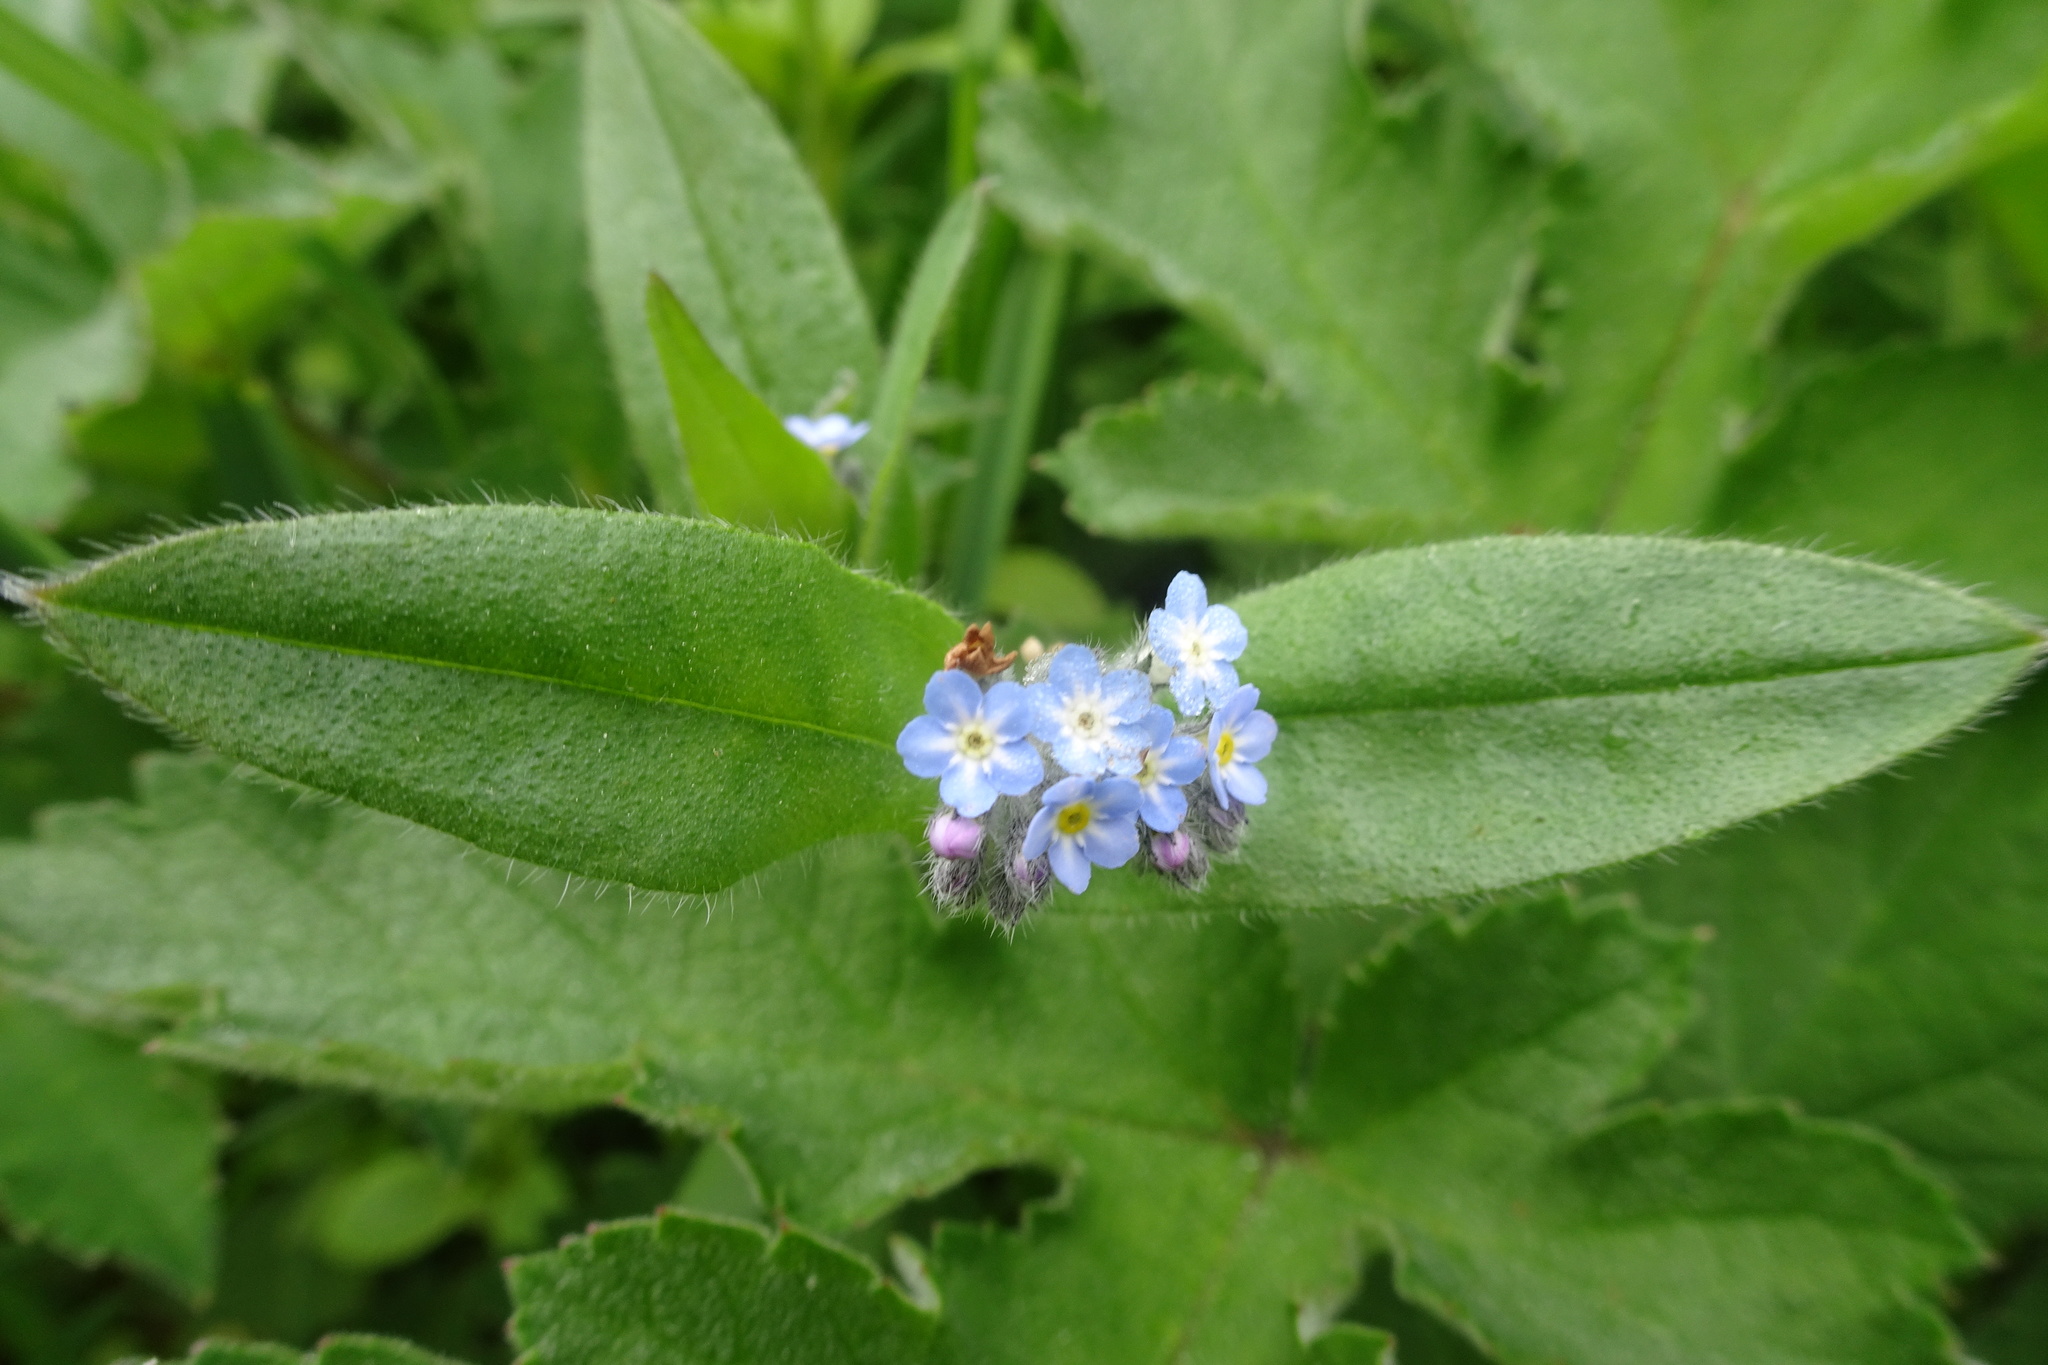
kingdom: Plantae
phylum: Tracheophyta
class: Magnoliopsida
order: Boraginales
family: Boraginaceae
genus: Myosotis
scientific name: Myosotis sylvatica
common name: Wood forget-me-not
